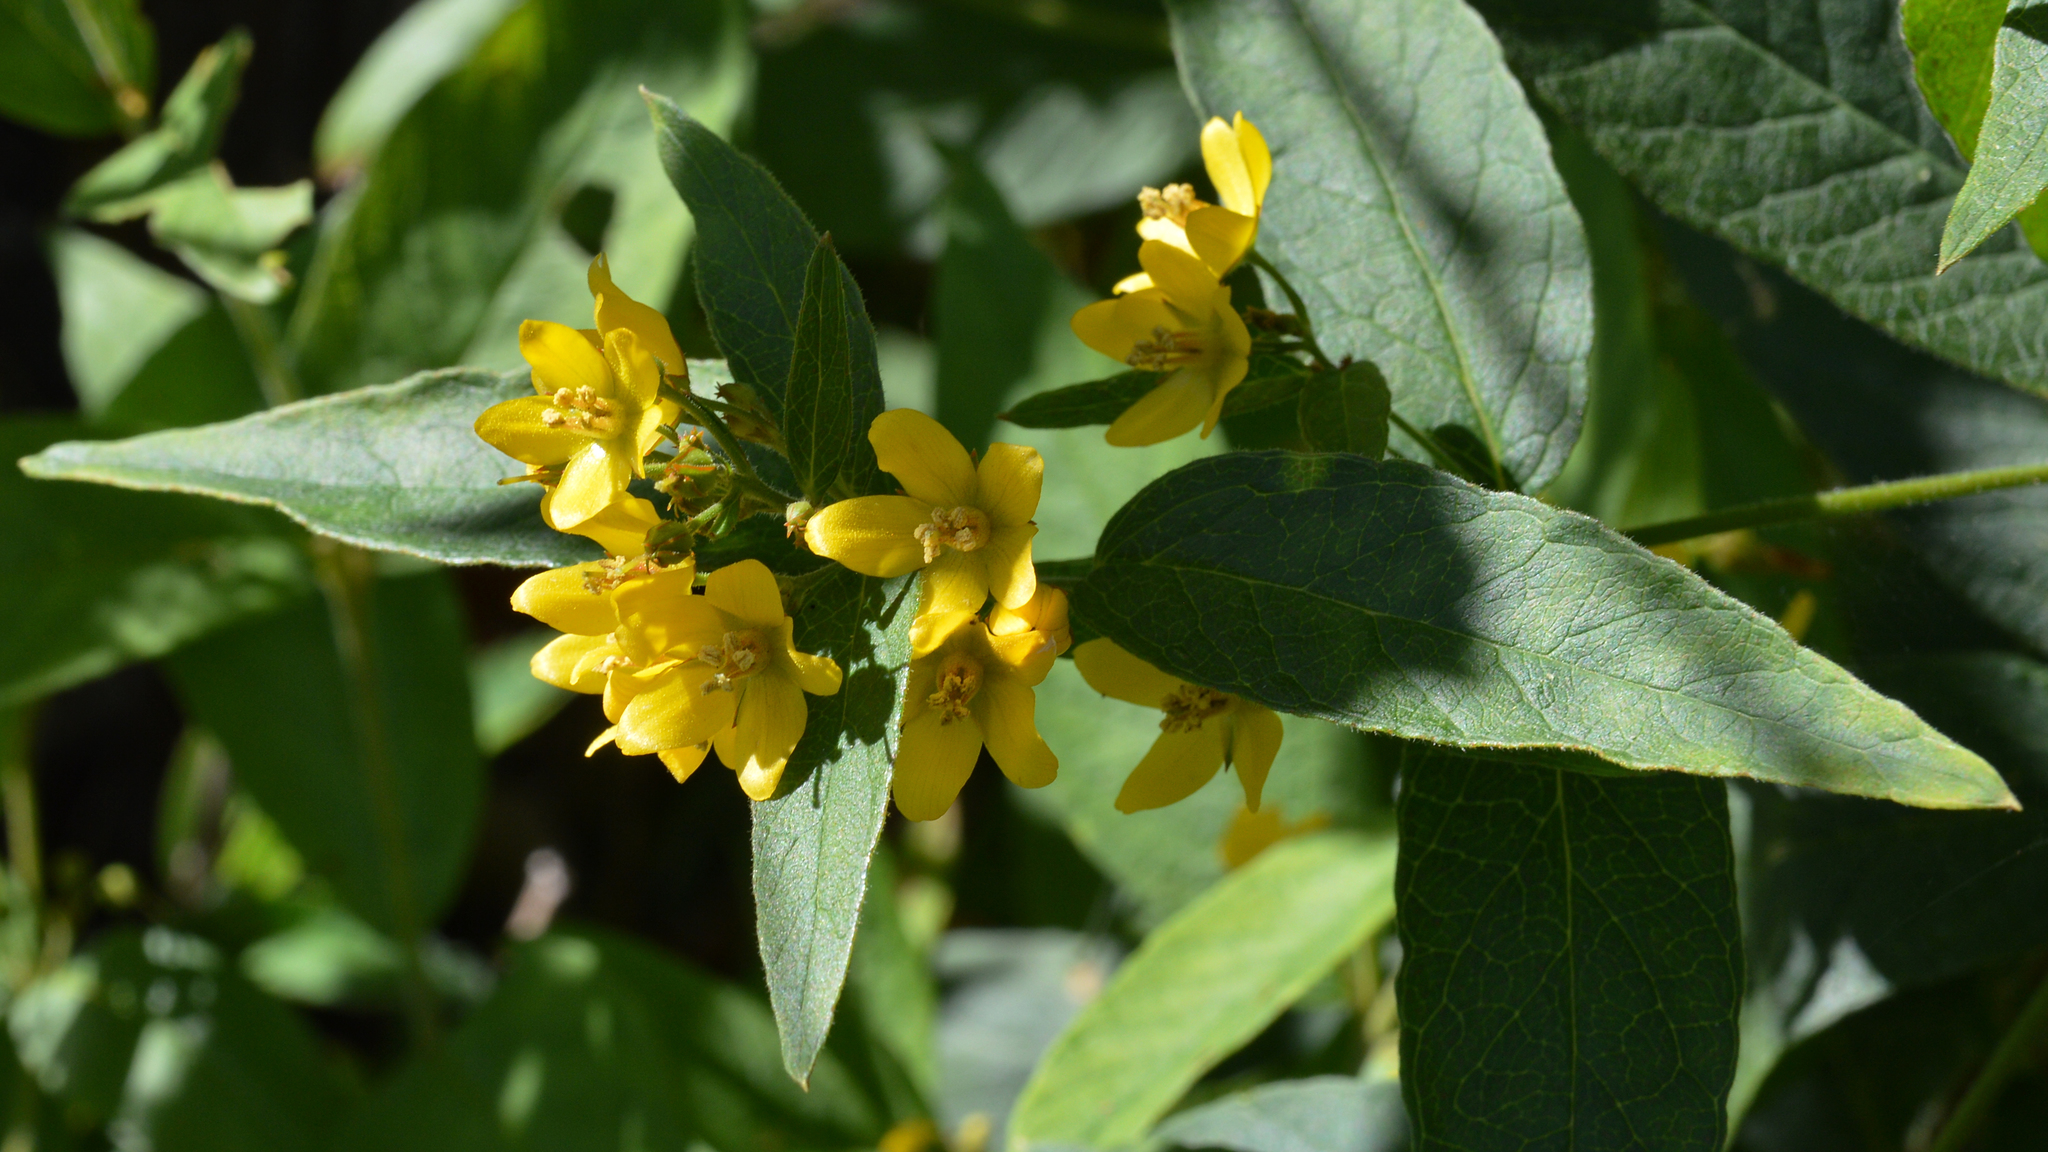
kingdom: Plantae
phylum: Tracheophyta
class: Magnoliopsida
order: Ericales
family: Primulaceae
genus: Lysimachia
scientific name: Lysimachia vulgaris
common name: Yellow loosestrife
